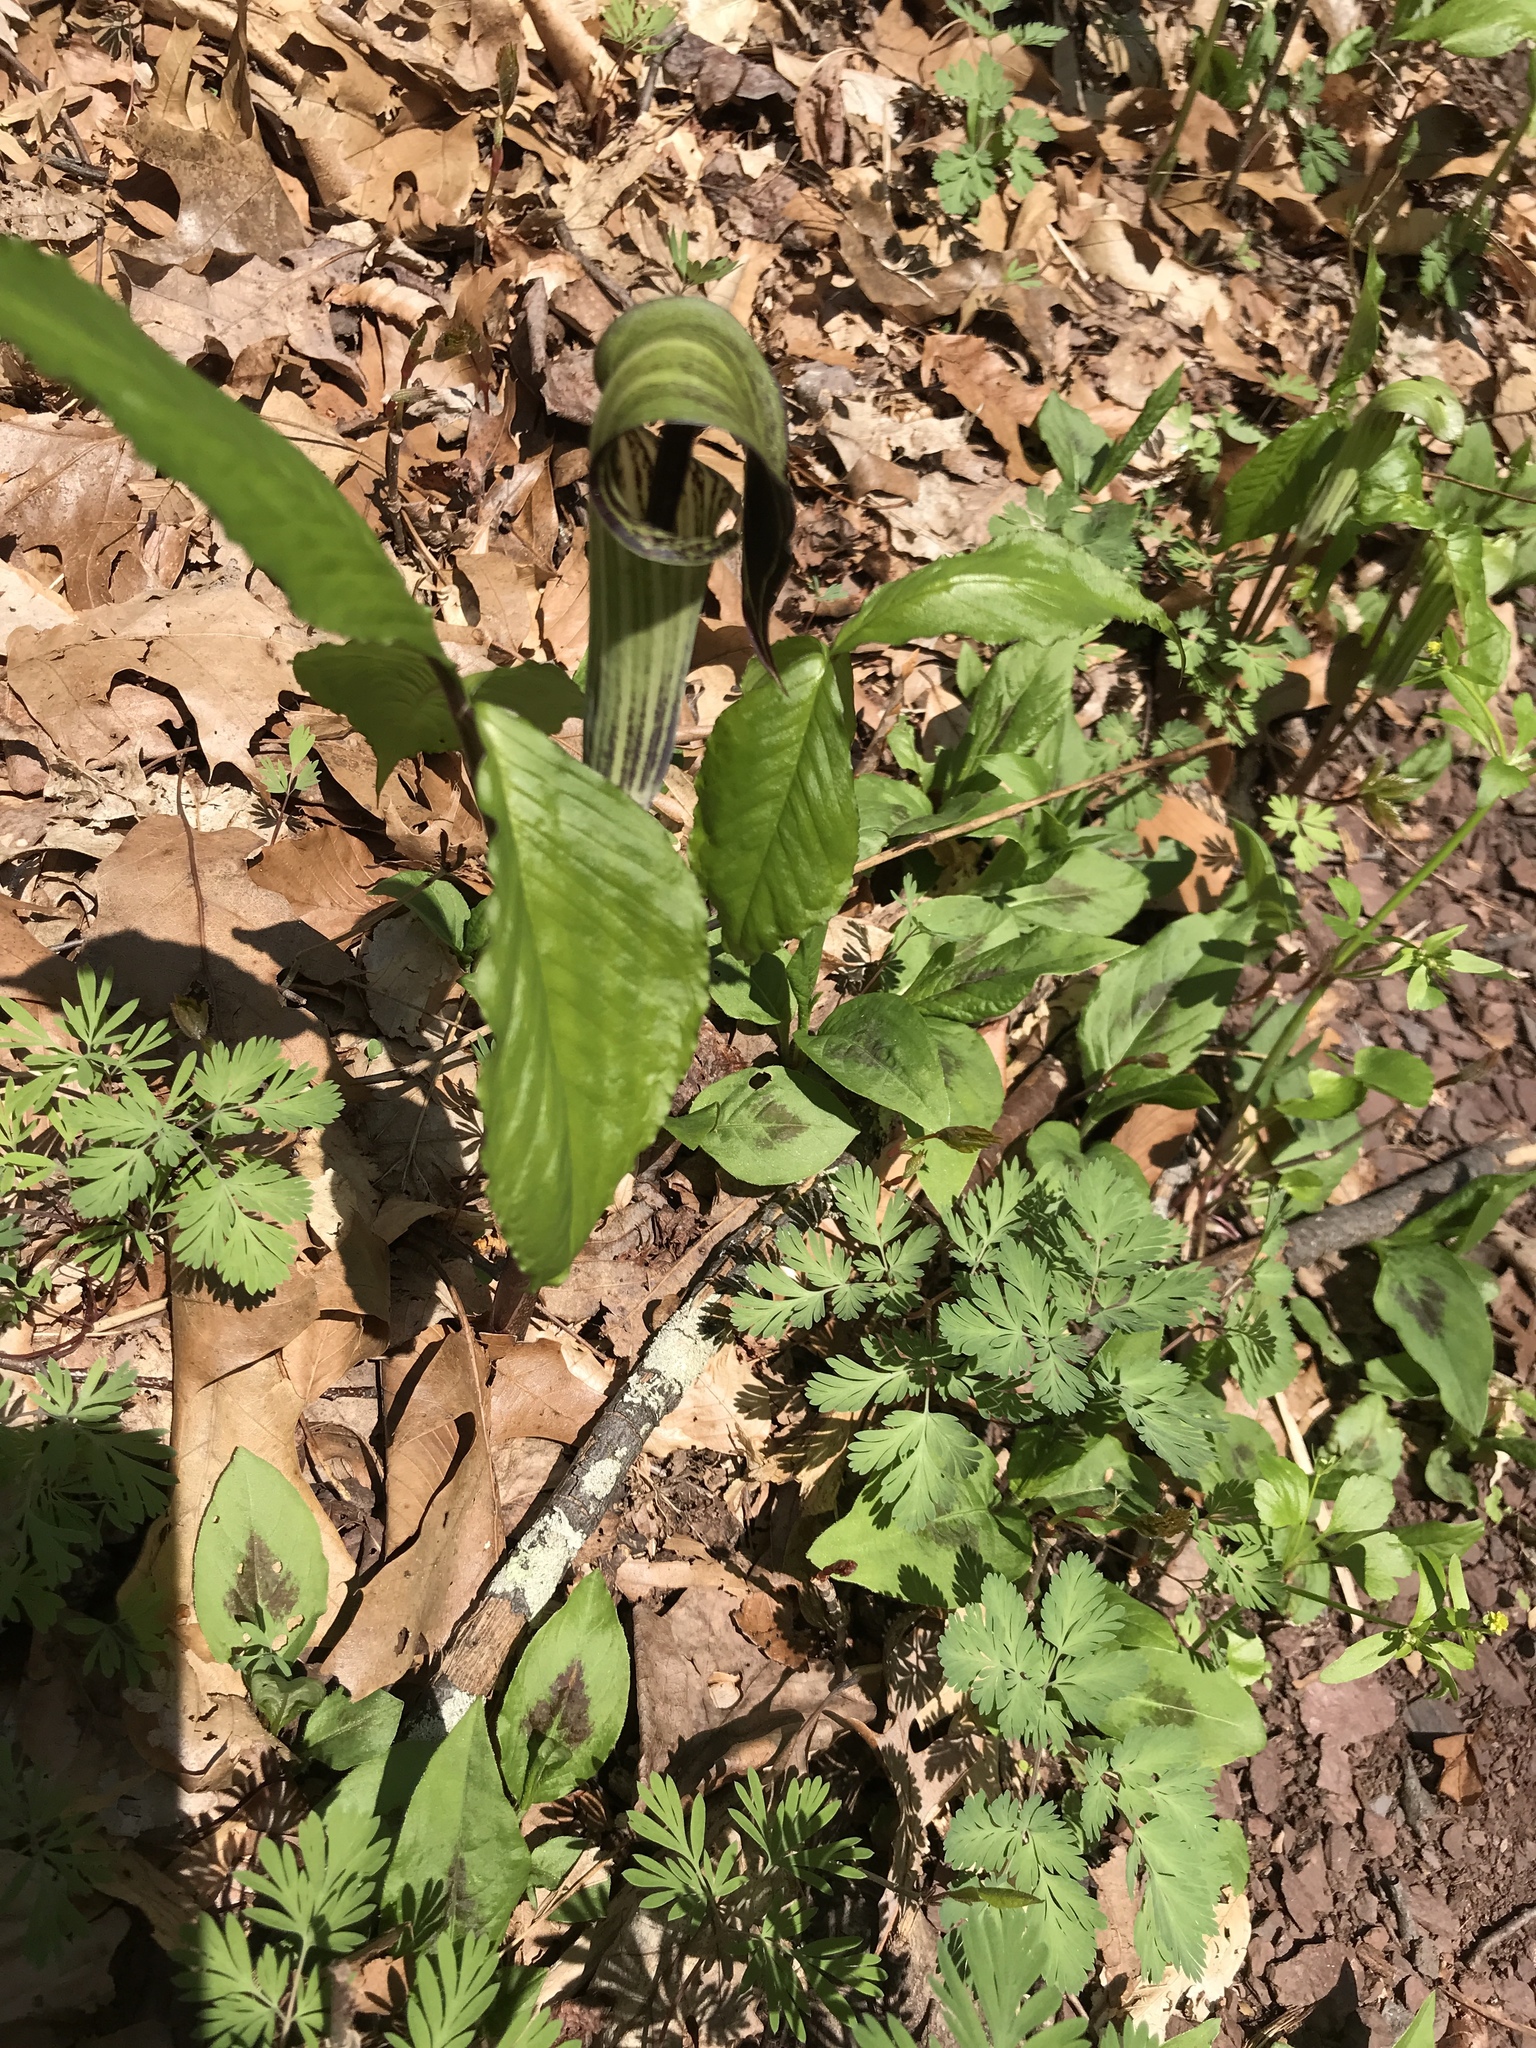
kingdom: Plantae
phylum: Tracheophyta
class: Liliopsida
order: Alismatales
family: Araceae
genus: Arisaema
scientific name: Arisaema triphyllum
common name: Jack-in-the-pulpit
